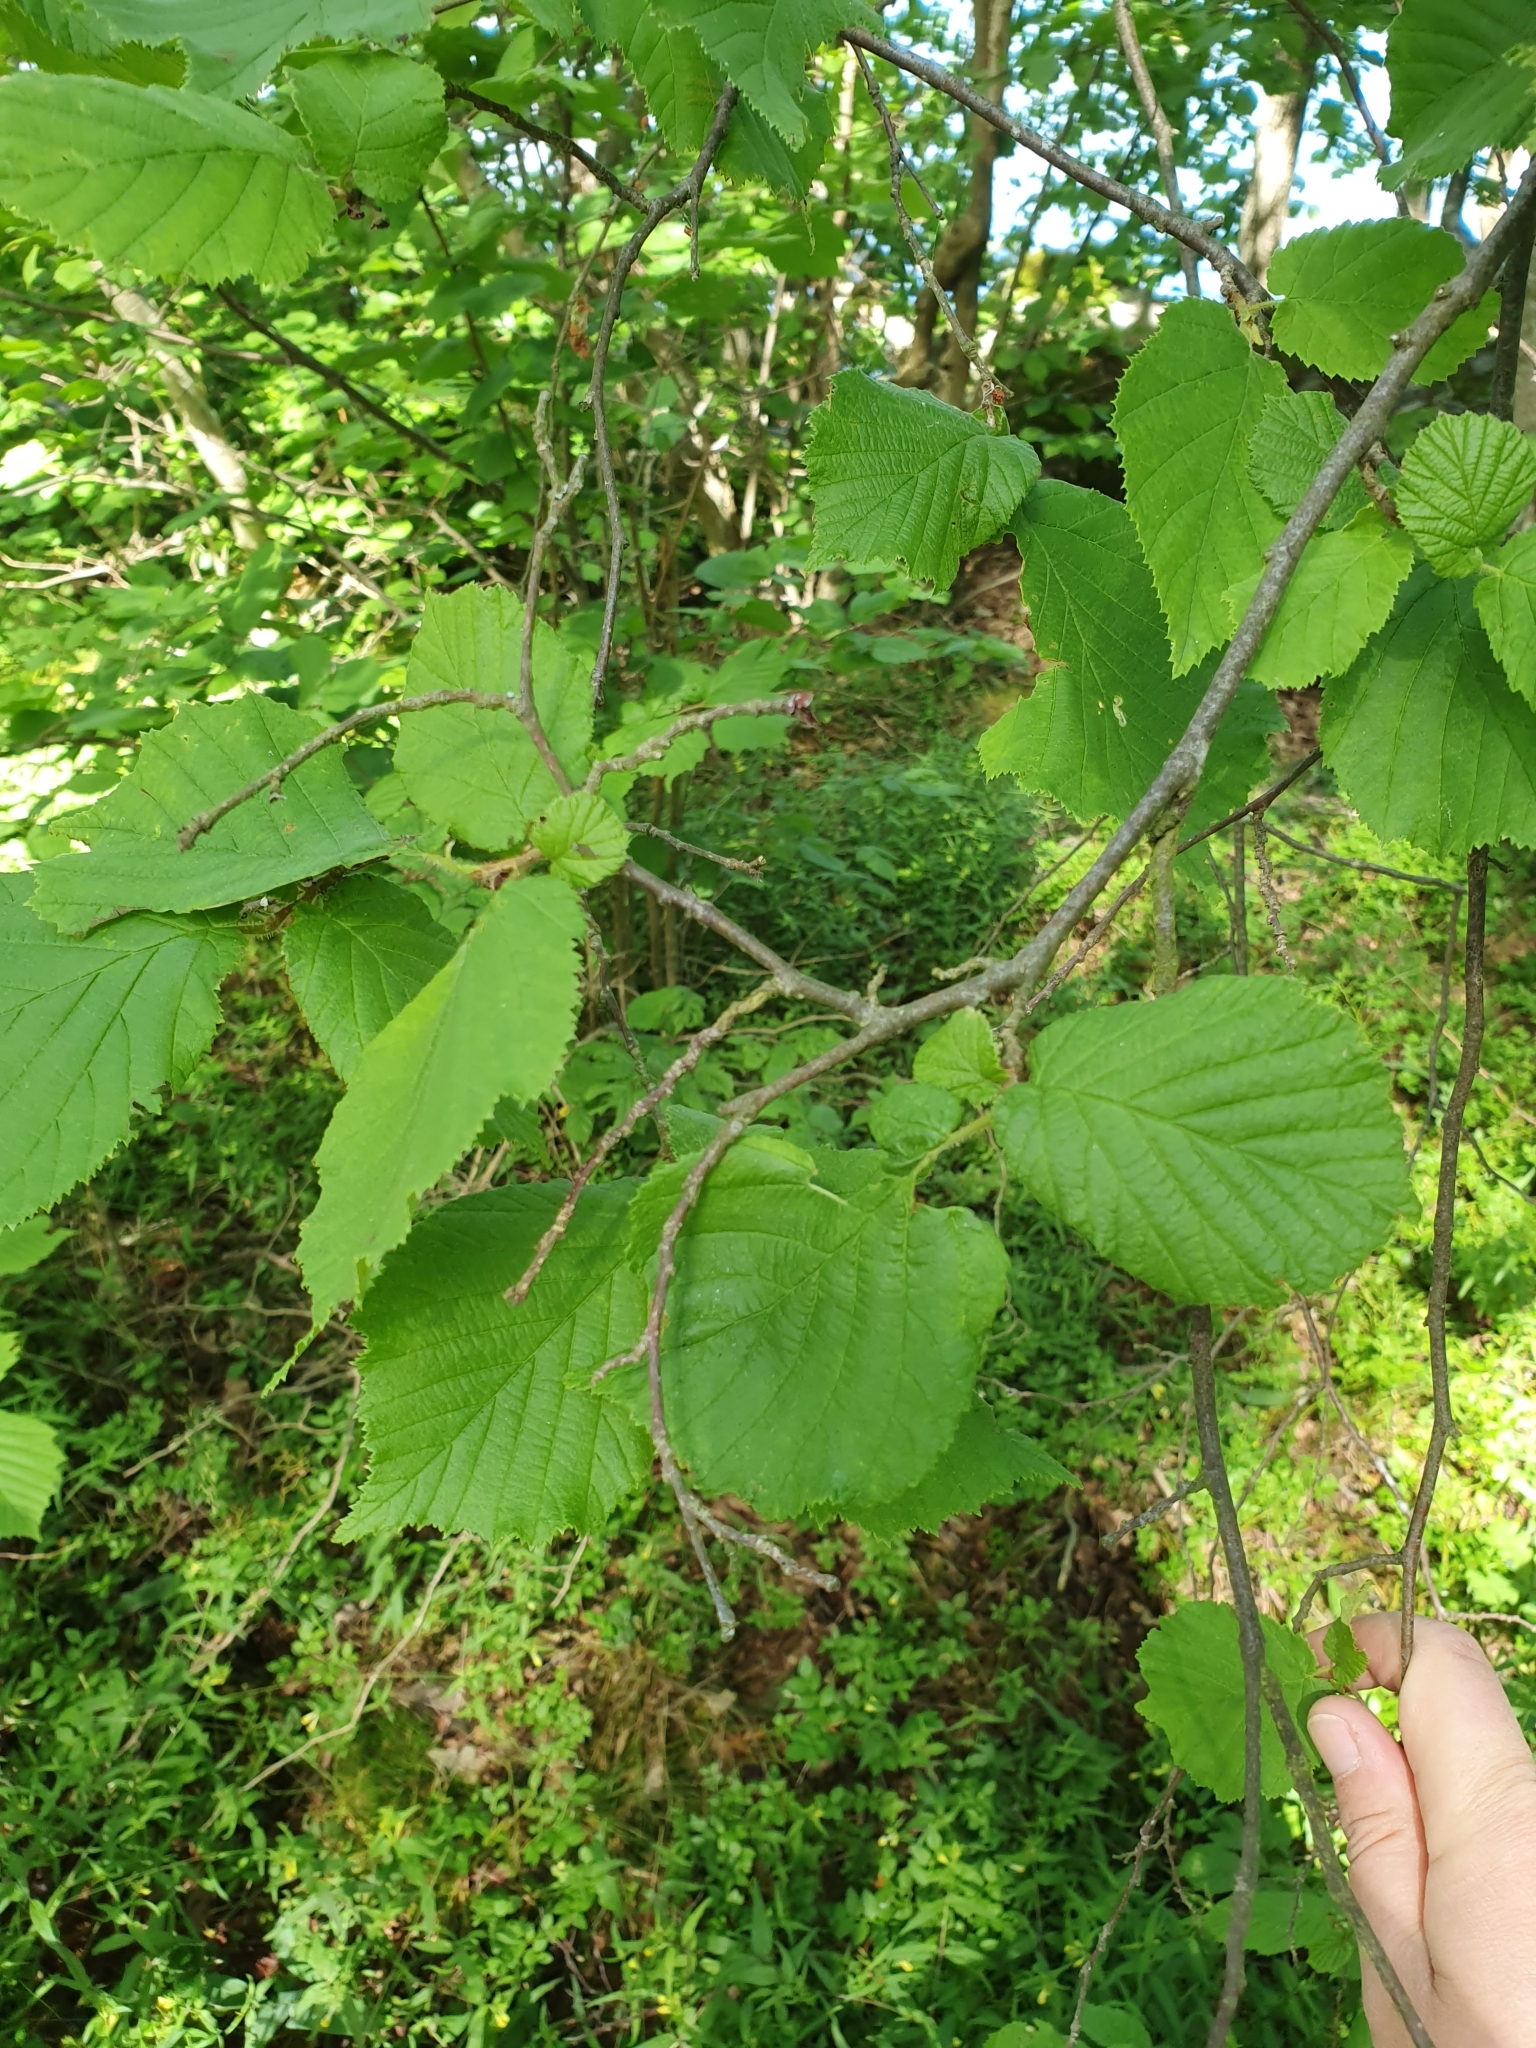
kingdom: Plantae
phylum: Tracheophyta
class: Magnoliopsida
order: Fagales
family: Betulaceae
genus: Corylus
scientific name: Corylus avellana
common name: European hazel
